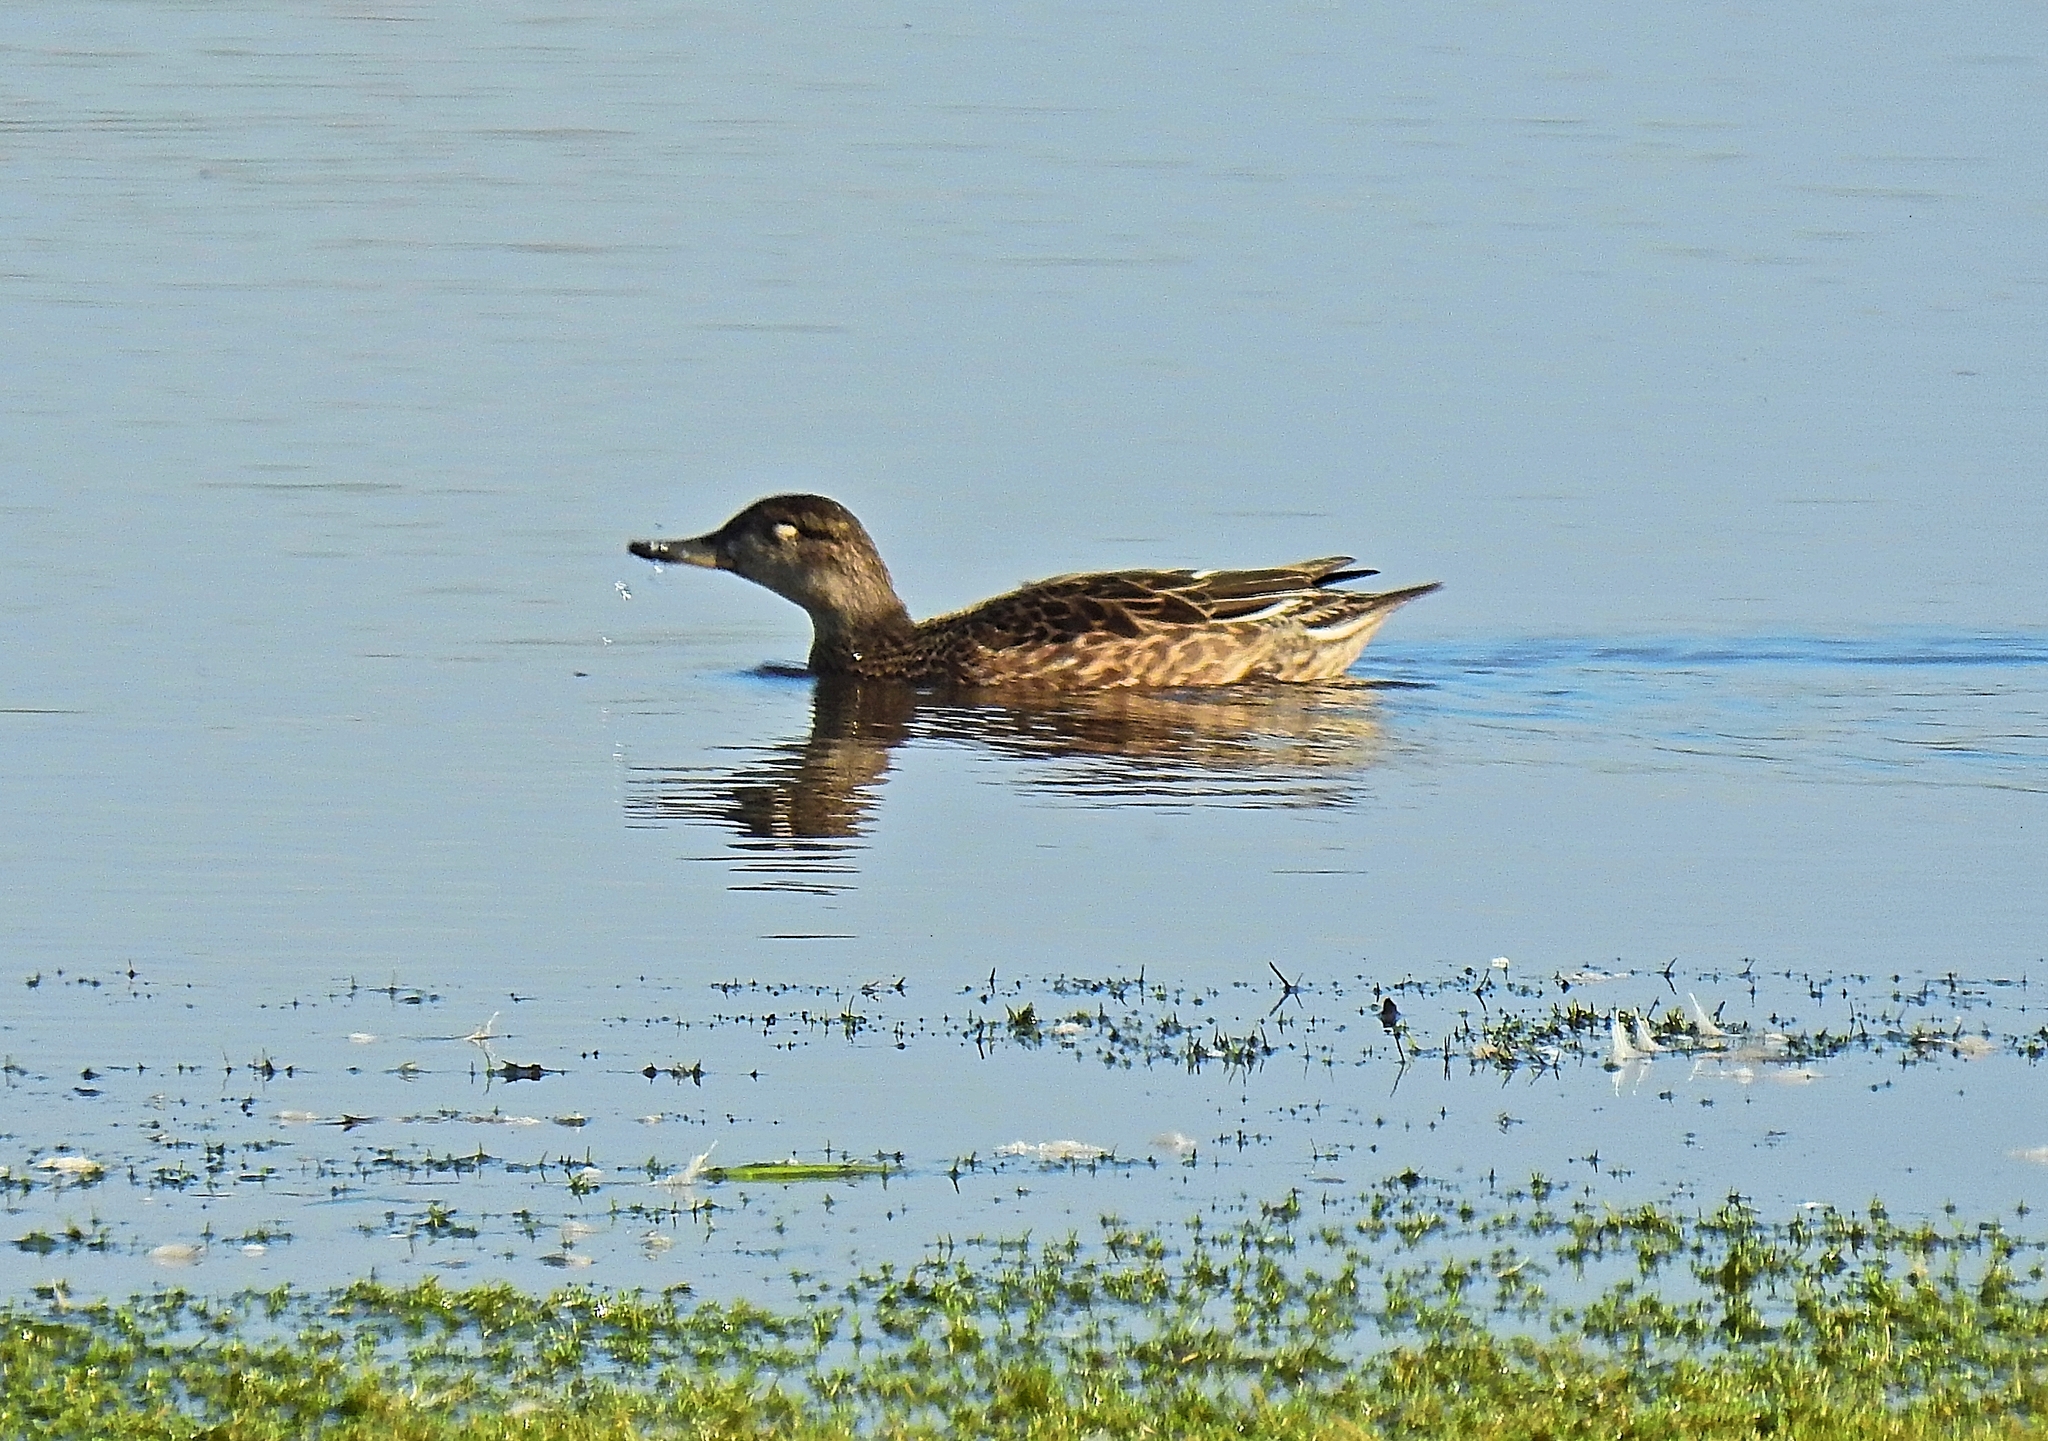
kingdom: Animalia
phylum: Chordata
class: Aves
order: Anseriformes
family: Anatidae
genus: Anas
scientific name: Anas crecca
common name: Eurasian teal
